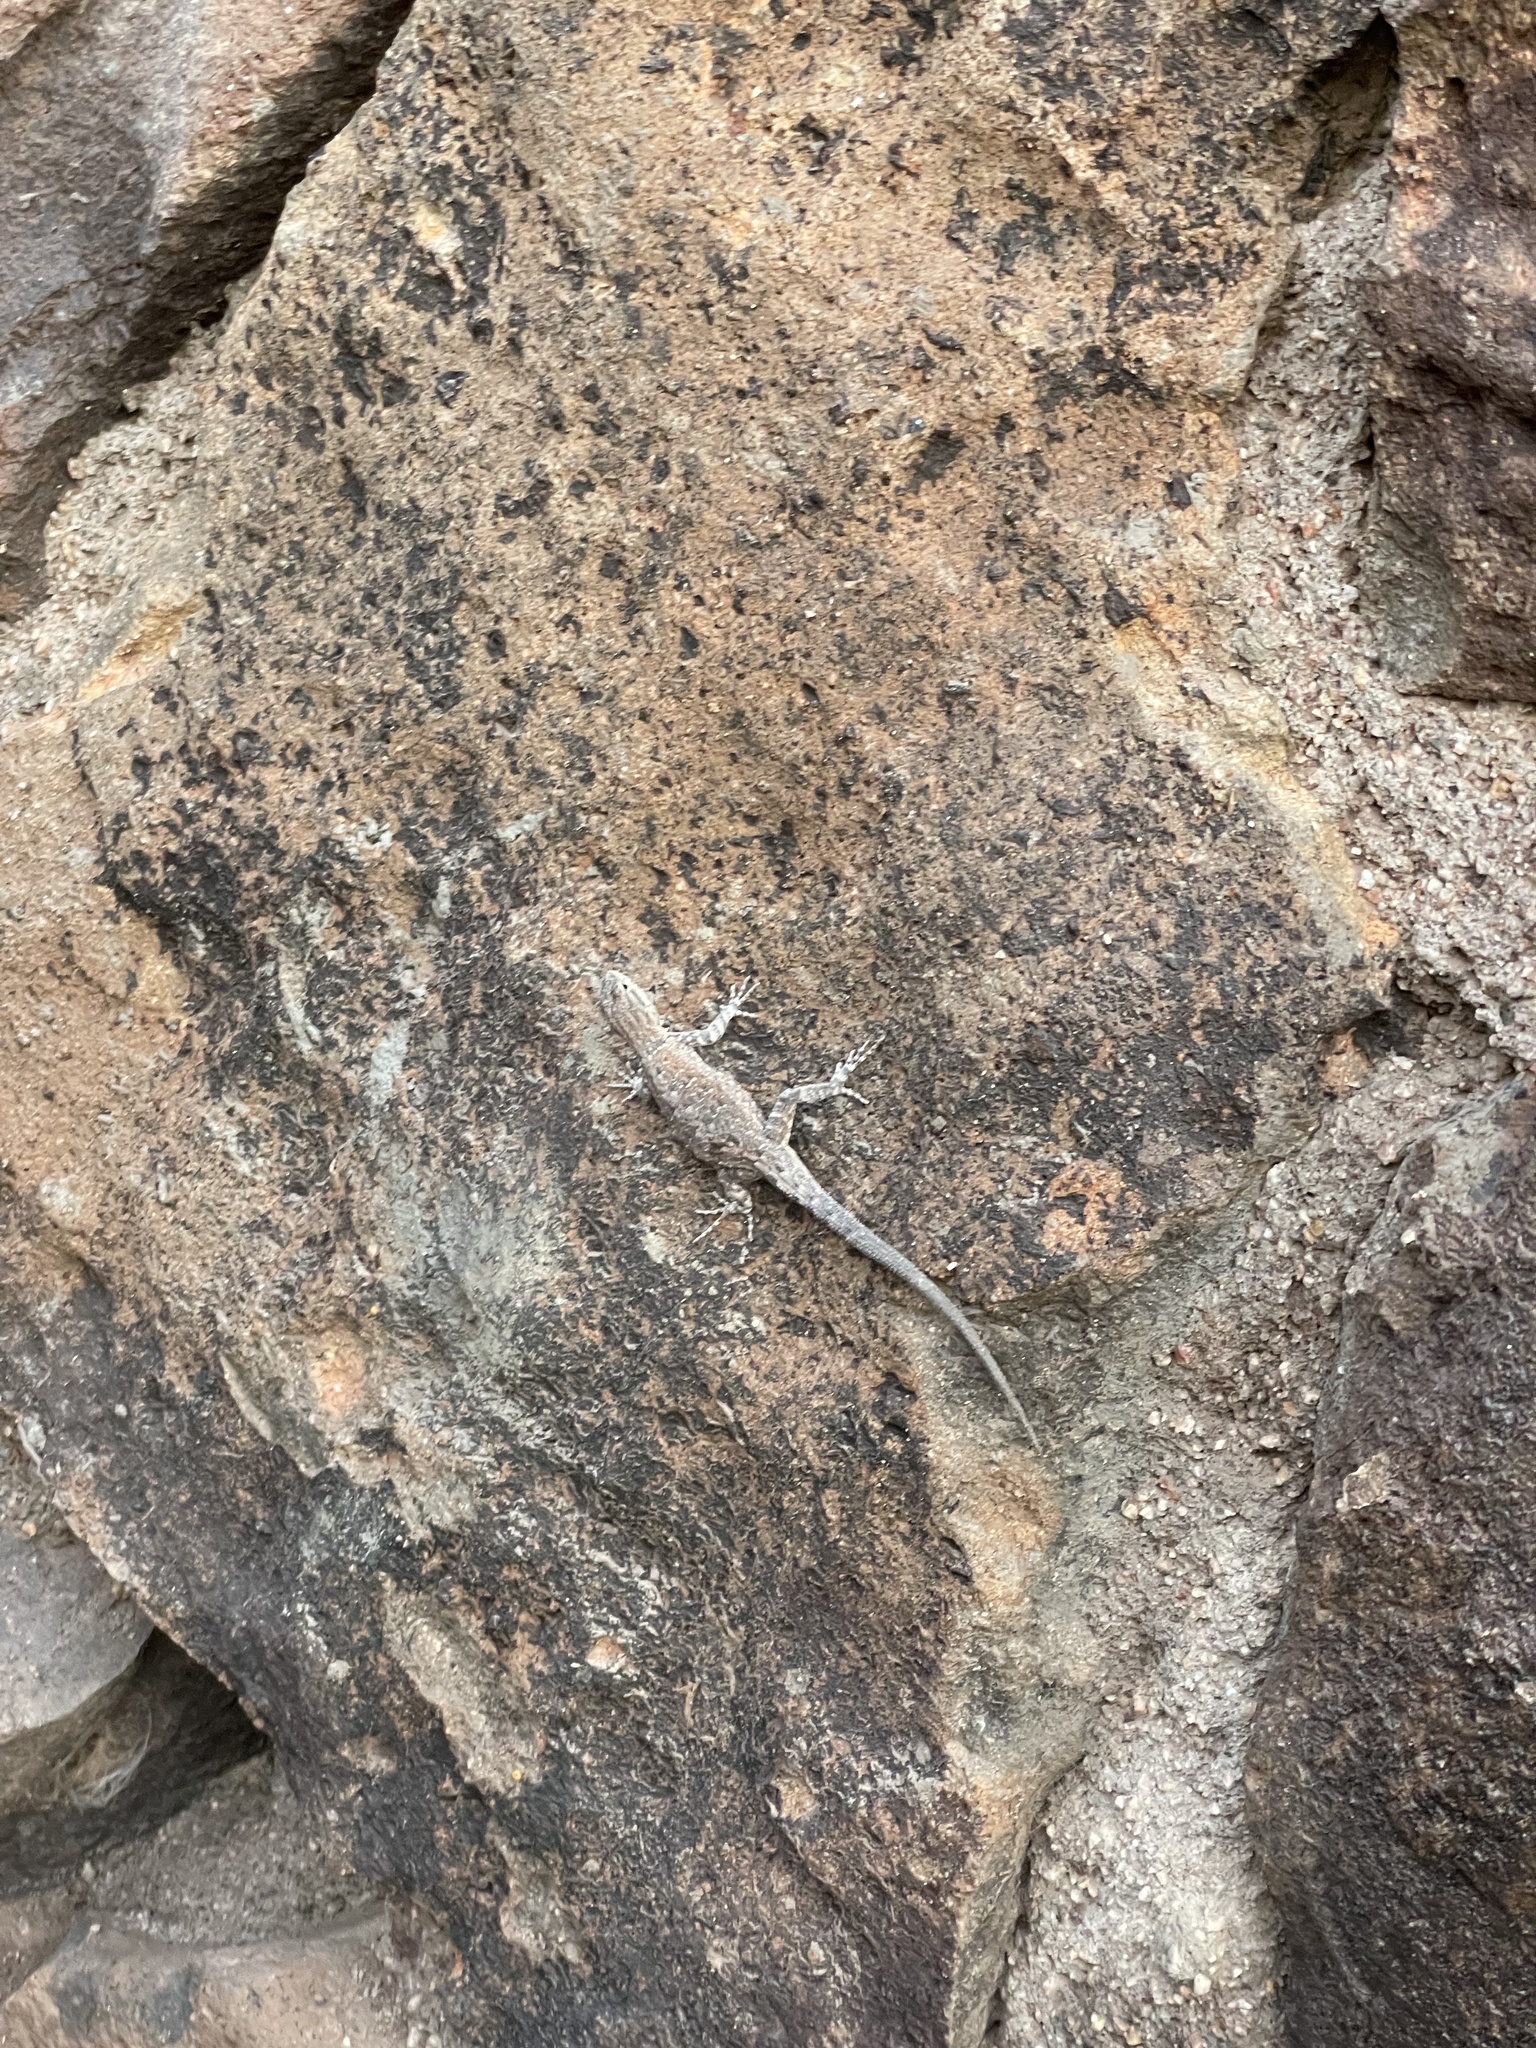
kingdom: Animalia
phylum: Chordata
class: Squamata
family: Phrynosomatidae
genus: Urosaurus
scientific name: Urosaurus nigricauda
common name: Baja california brush lizard
